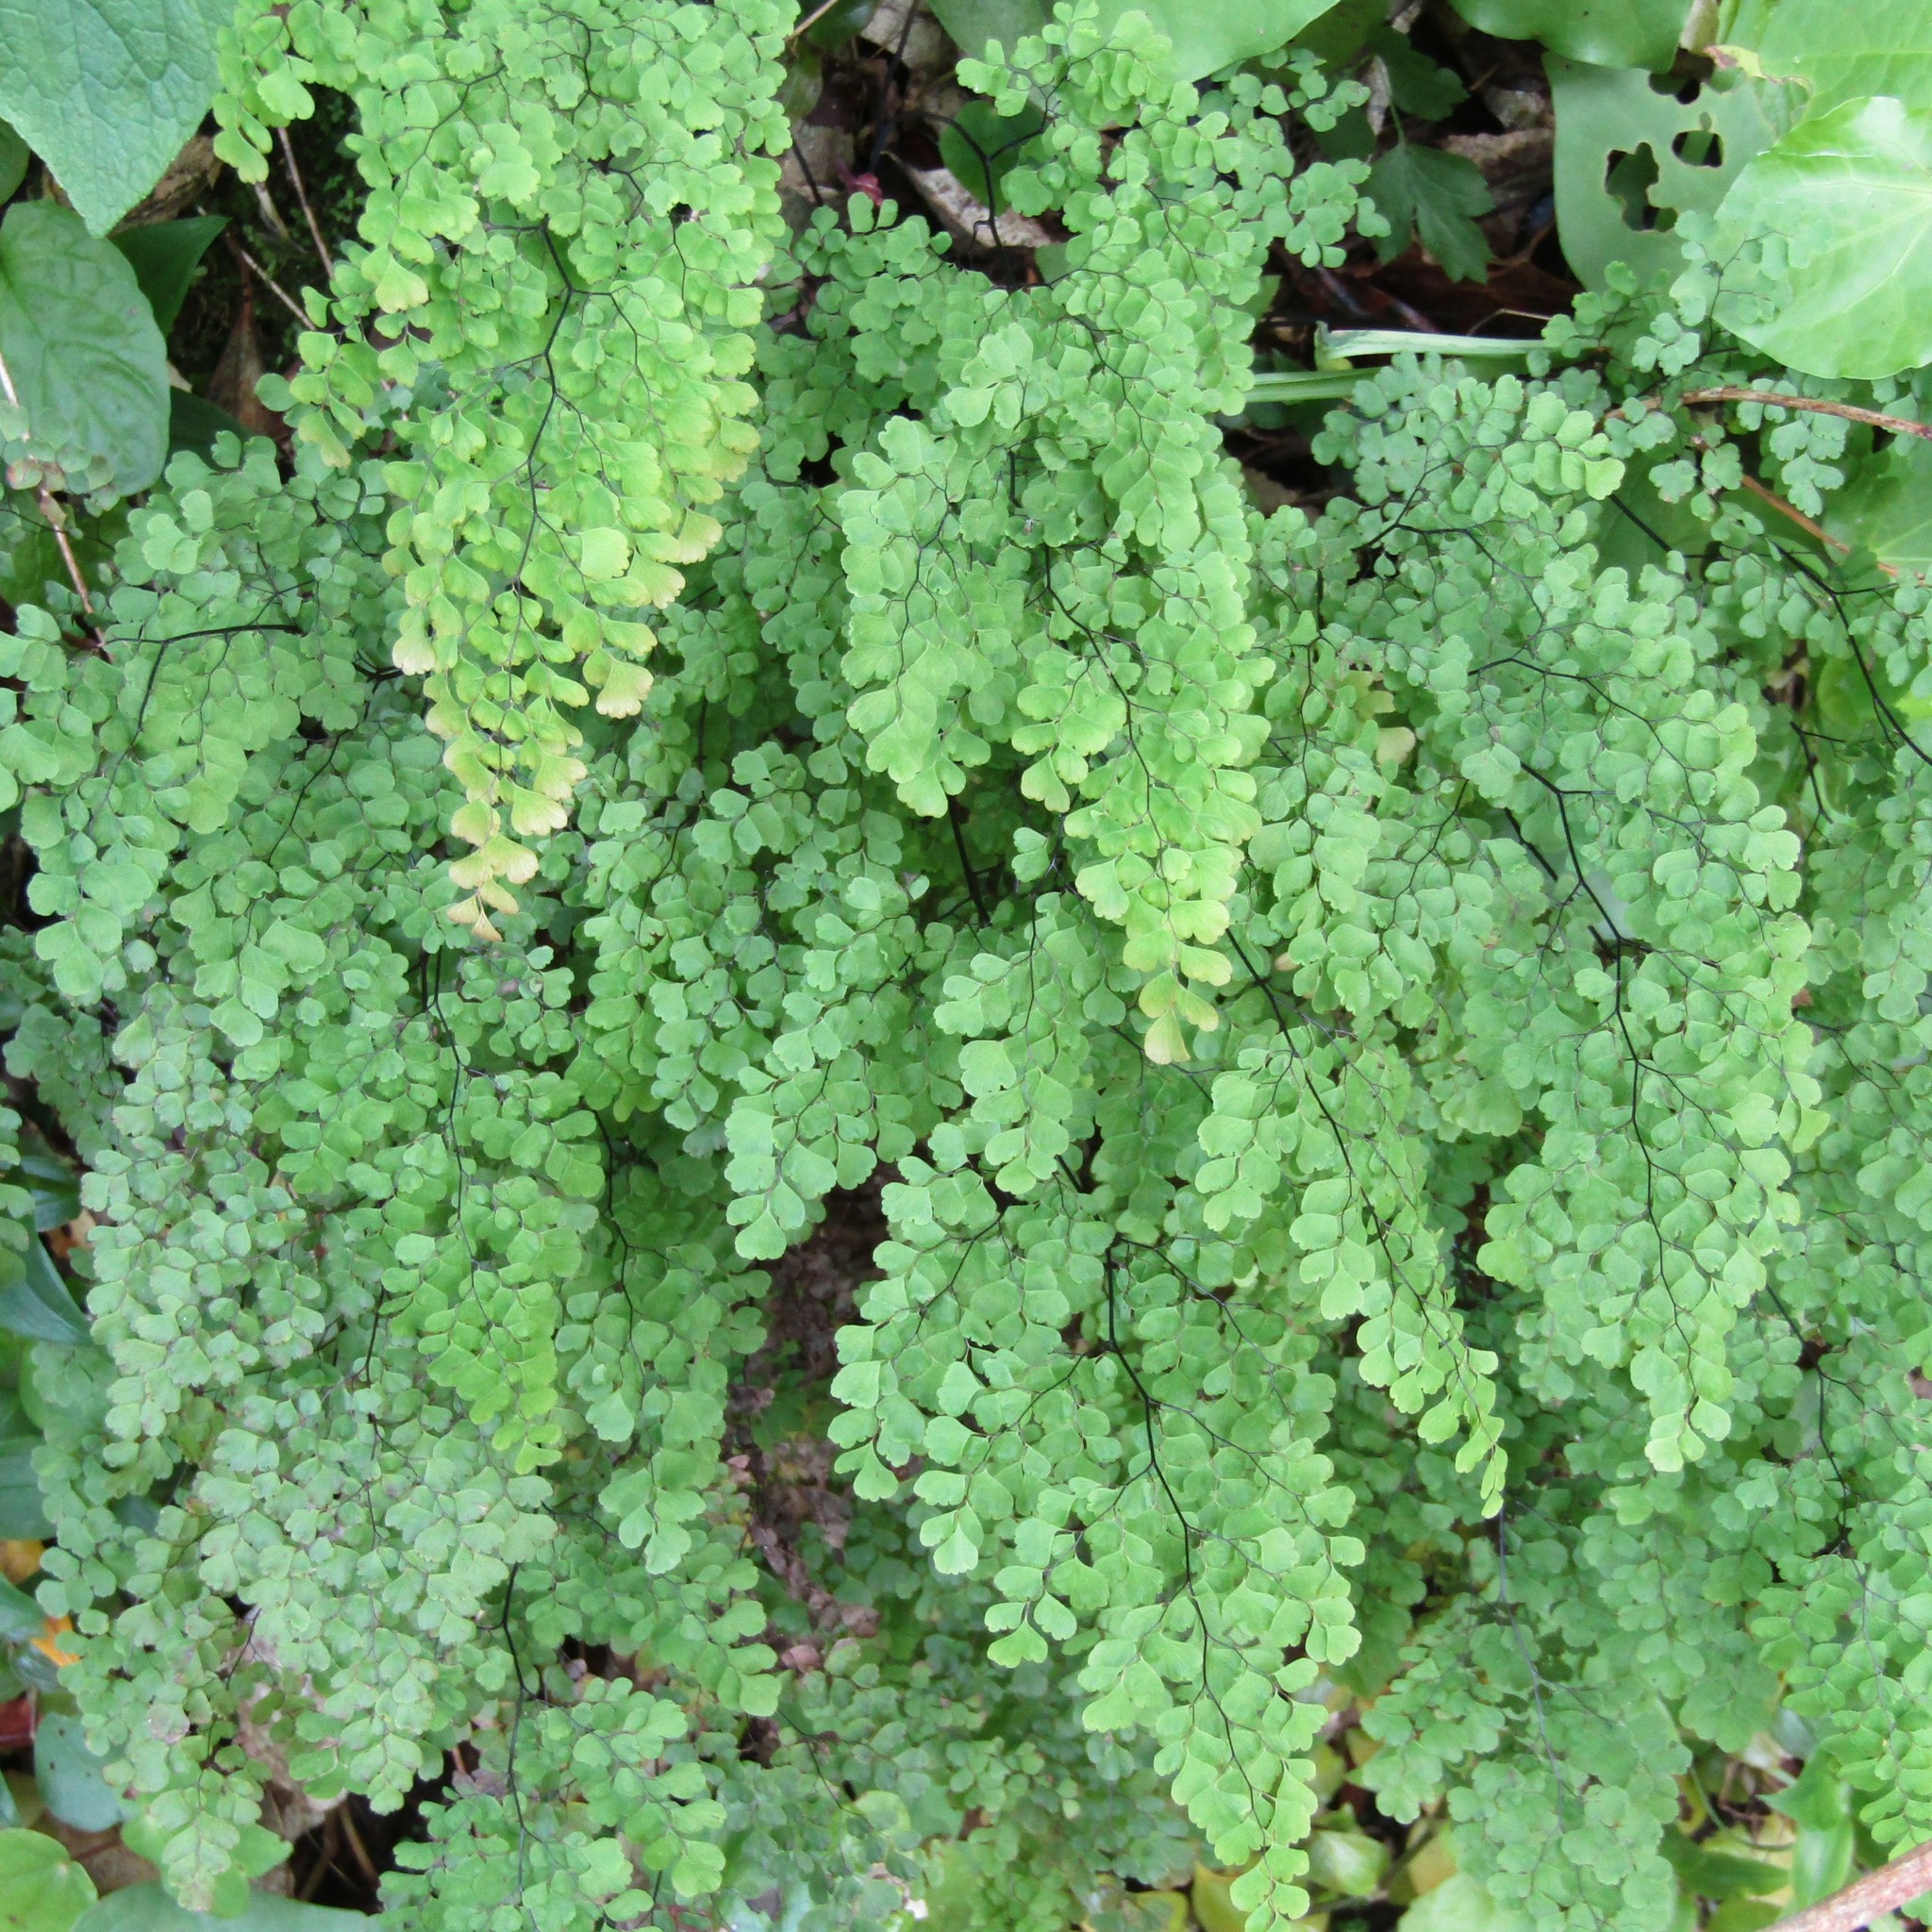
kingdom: Plantae
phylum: Tracheophyta
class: Polypodiopsida
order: Polypodiales
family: Pteridaceae
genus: Adiantum
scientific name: Adiantum raddianum
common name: Delta maidenhair fern
